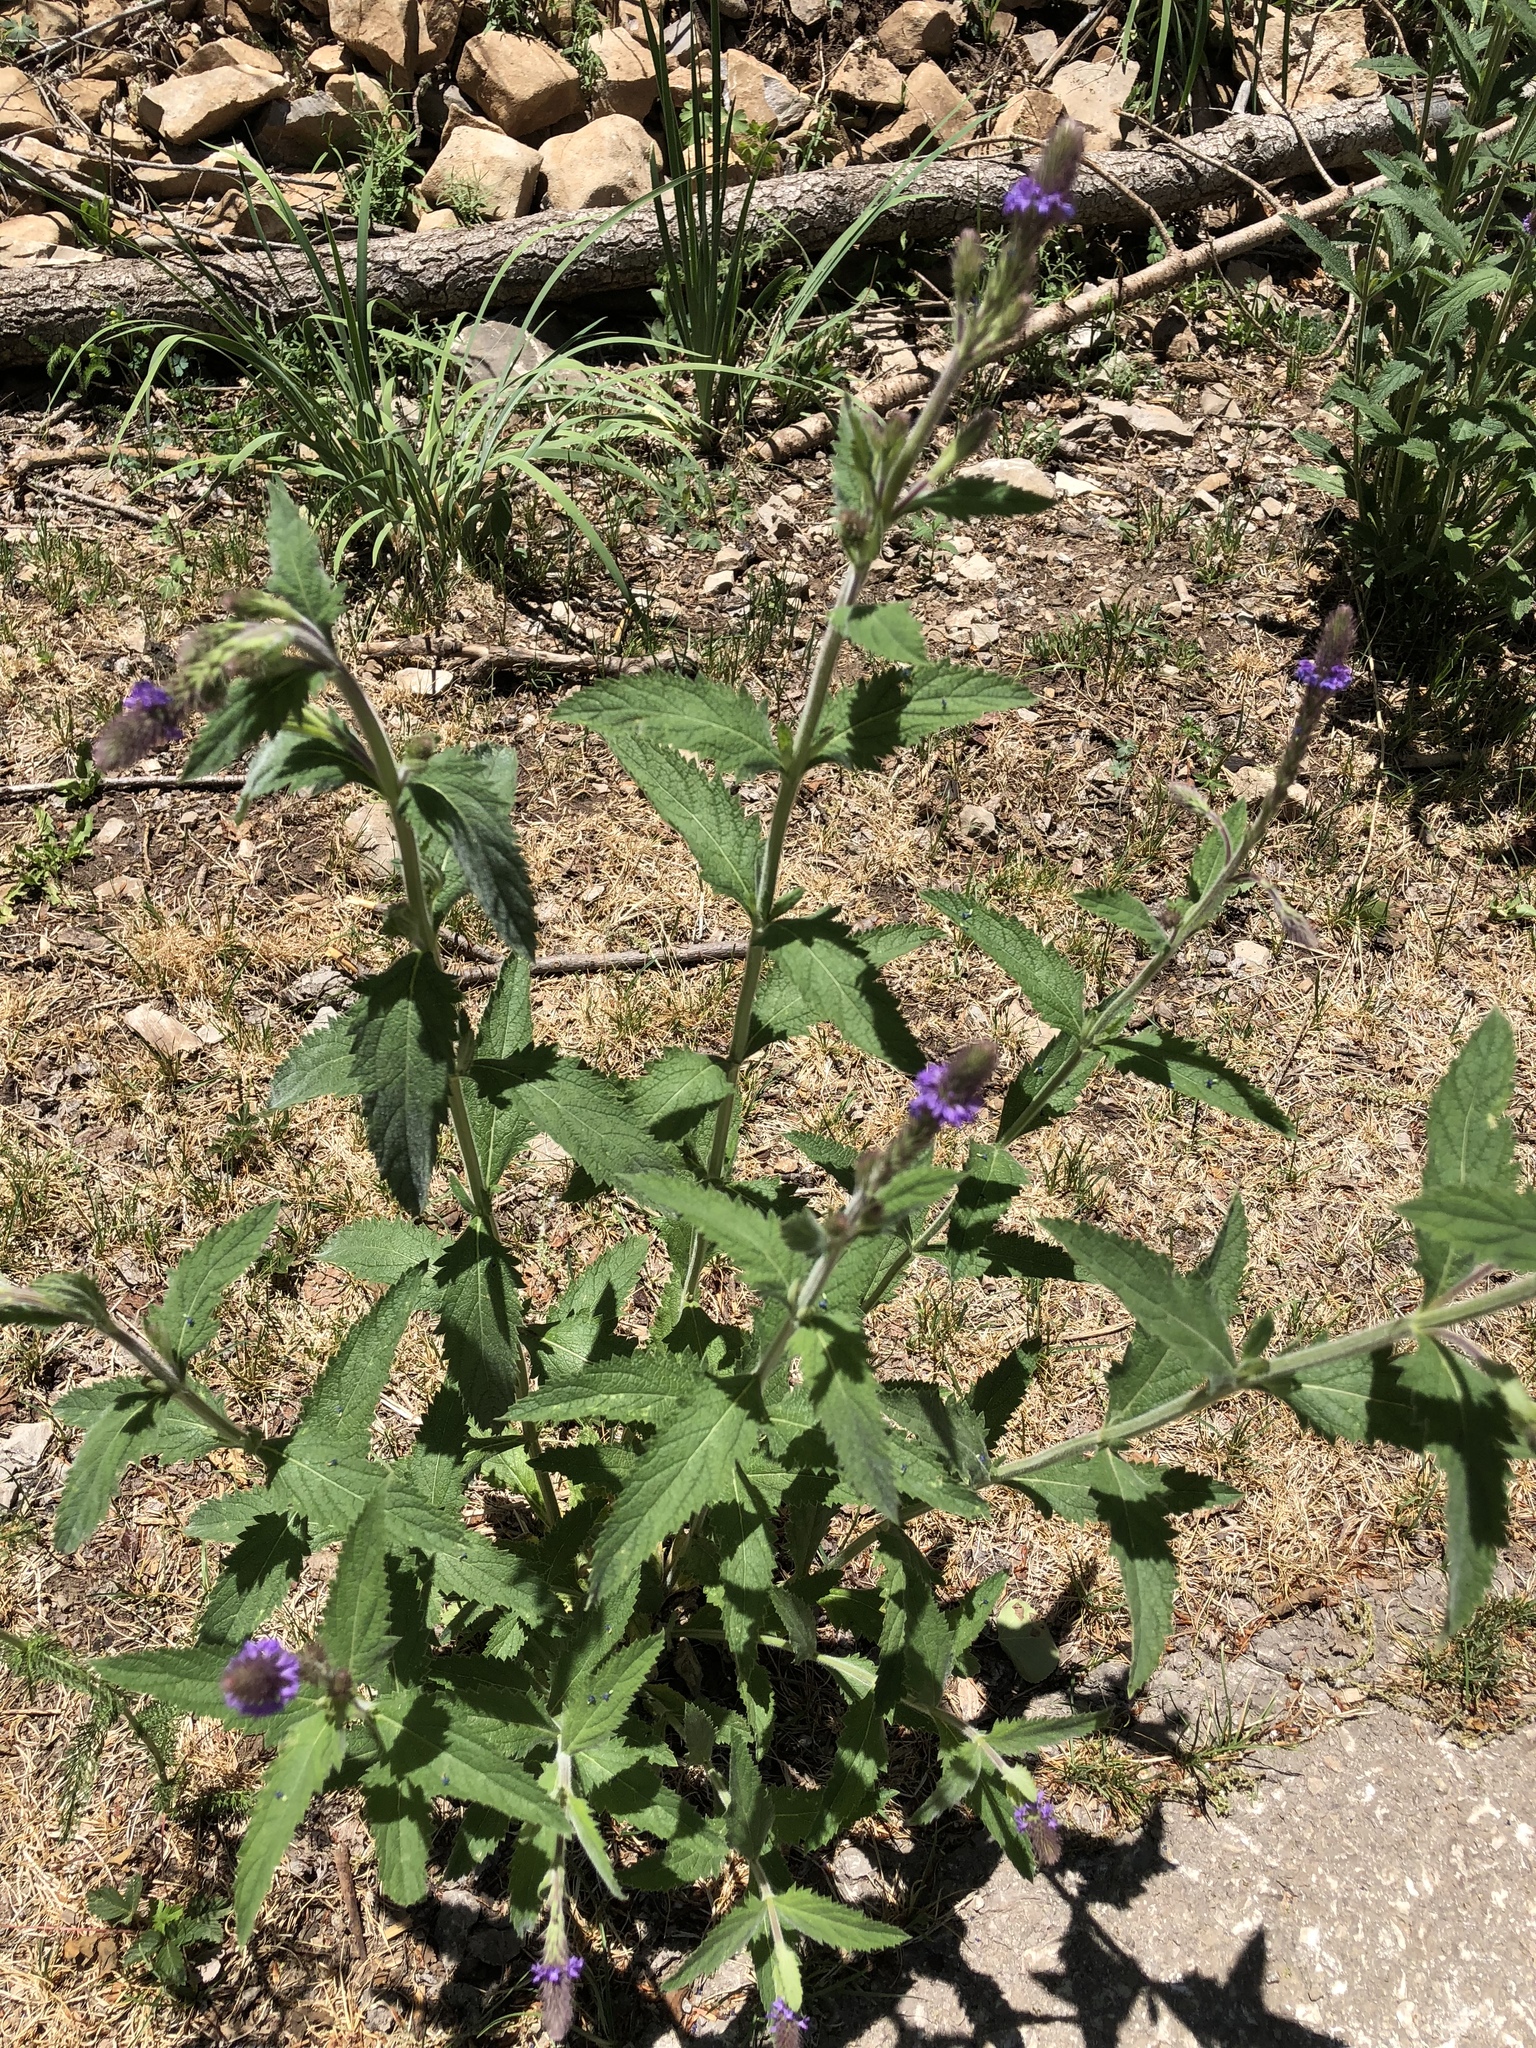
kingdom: Plantae
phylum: Tracheophyta
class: Magnoliopsida
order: Lamiales
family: Verbenaceae
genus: Verbena
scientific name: Verbena macdougalii
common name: New mexico vervain
